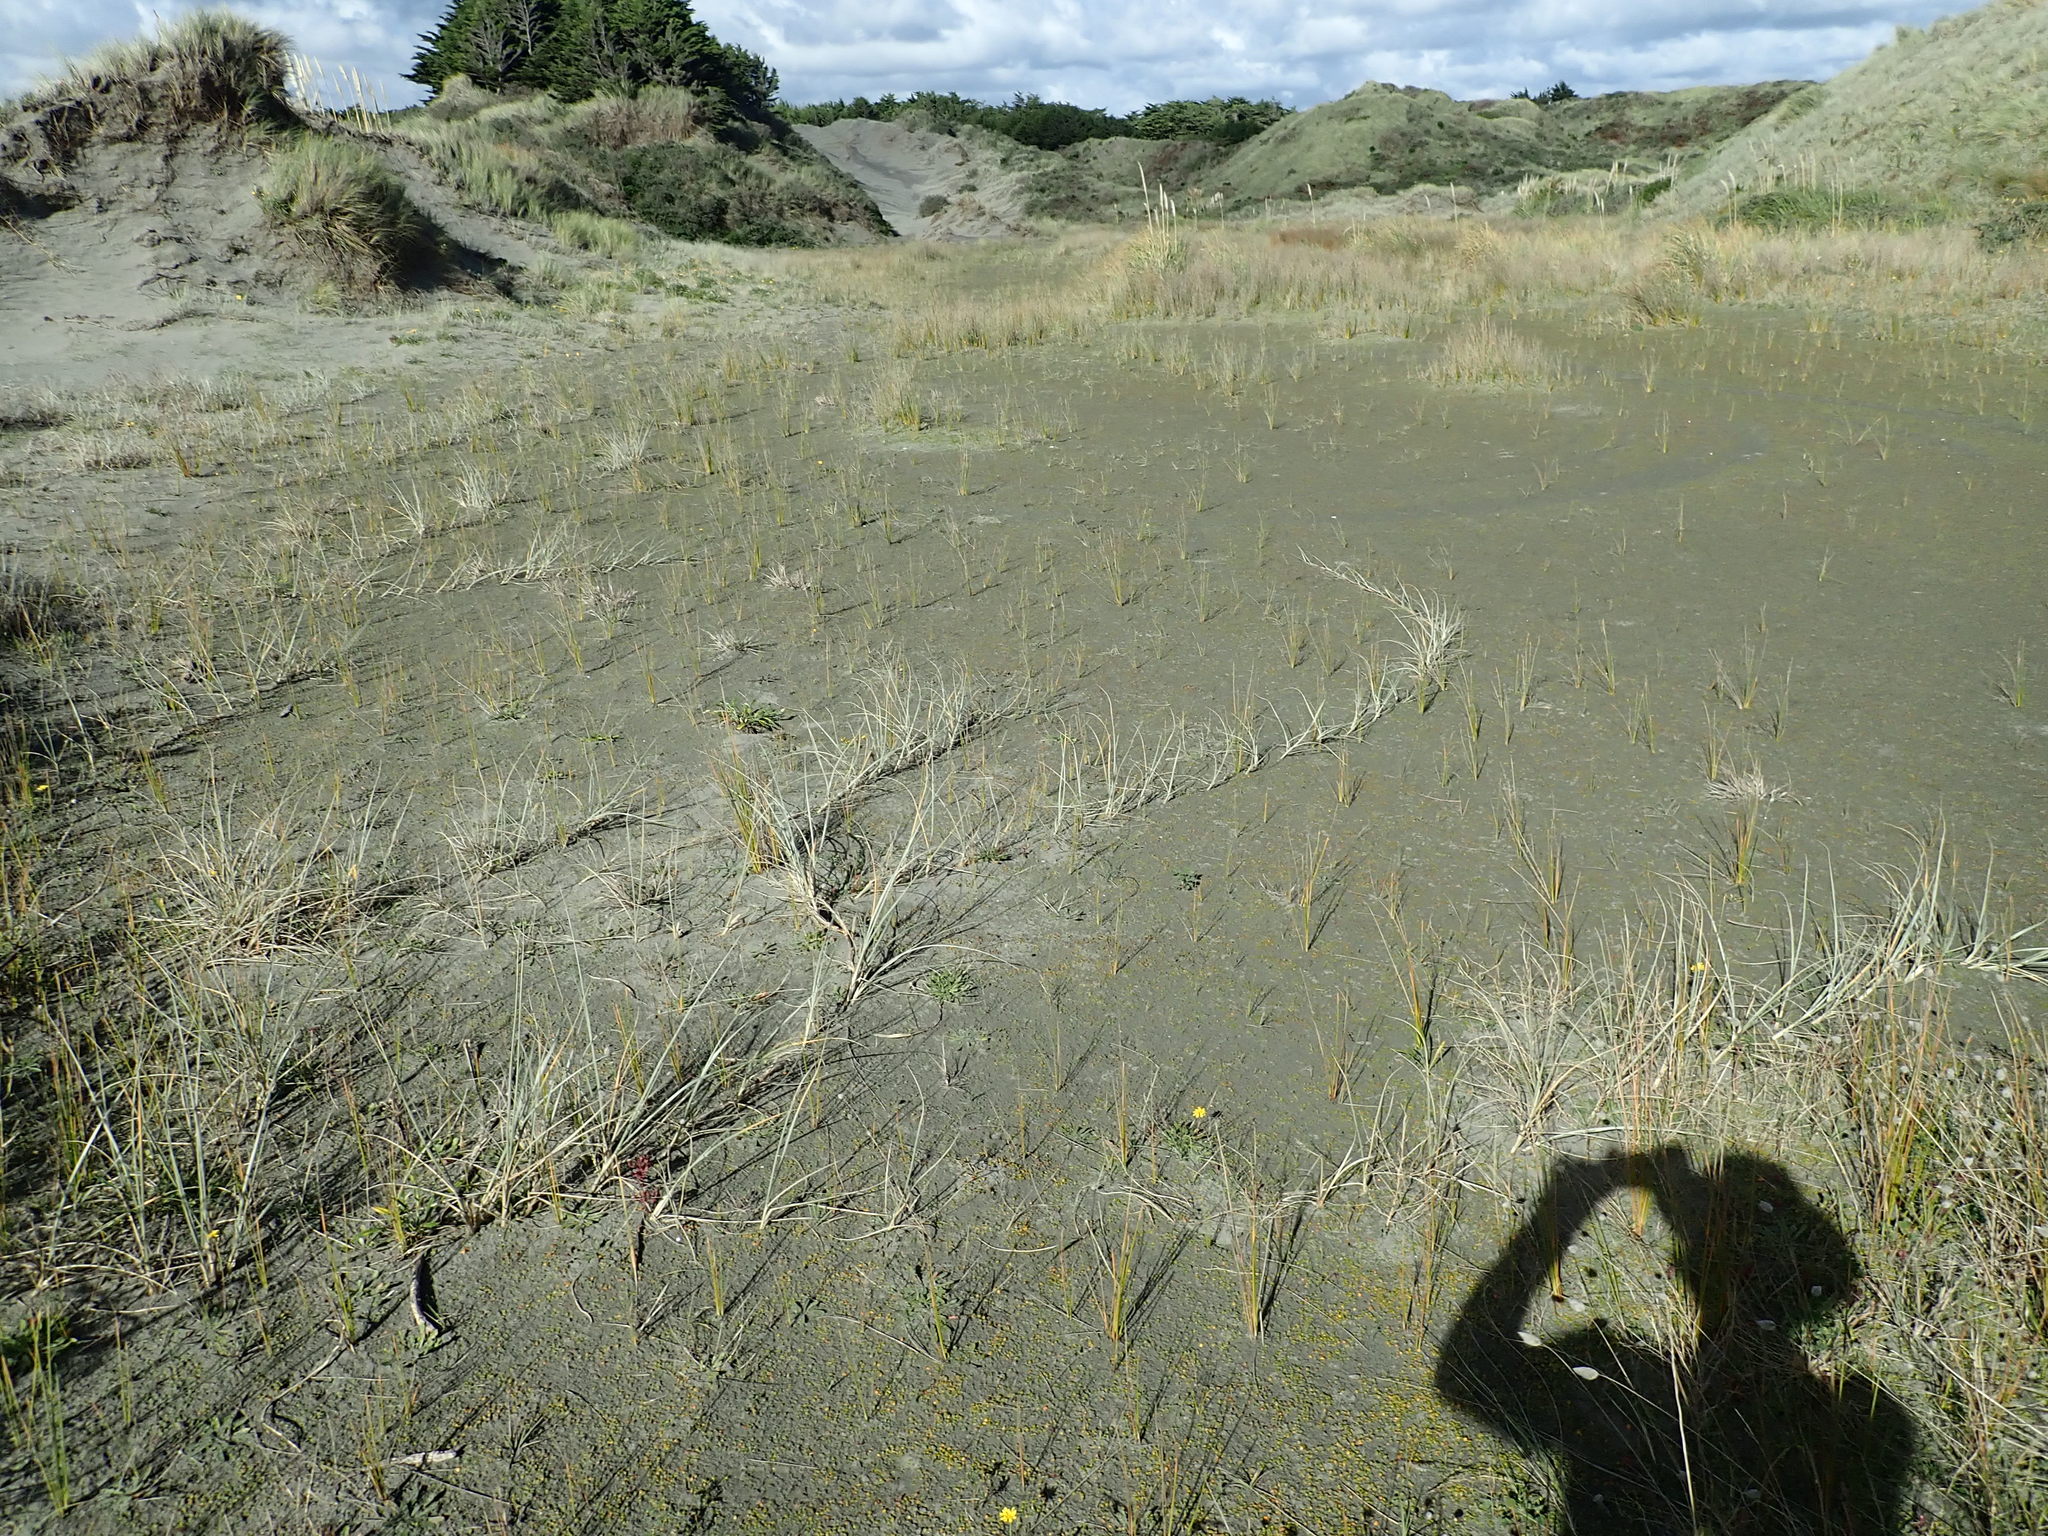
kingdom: Plantae
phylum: Tracheophyta
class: Liliopsida
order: Poales
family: Poaceae
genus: Spinifex
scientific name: Spinifex sericeus
